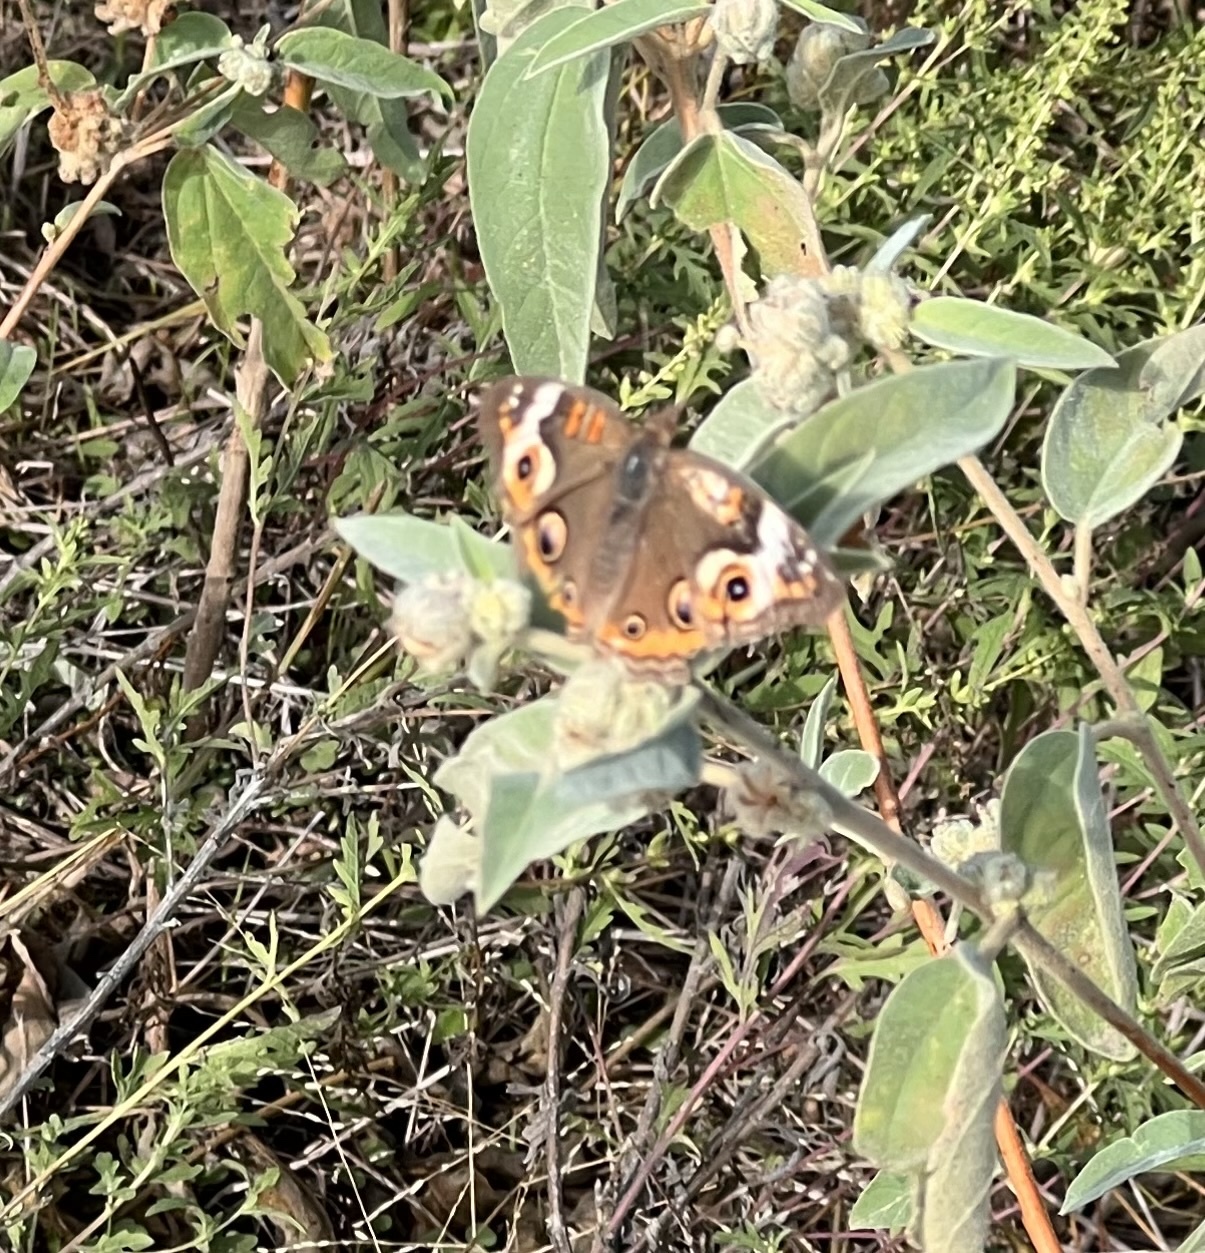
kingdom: Animalia
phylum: Arthropoda
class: Insecta
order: Lepidoptera
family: Nymphalidae
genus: Junonia
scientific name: Junonia coenia
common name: Common buckeye
